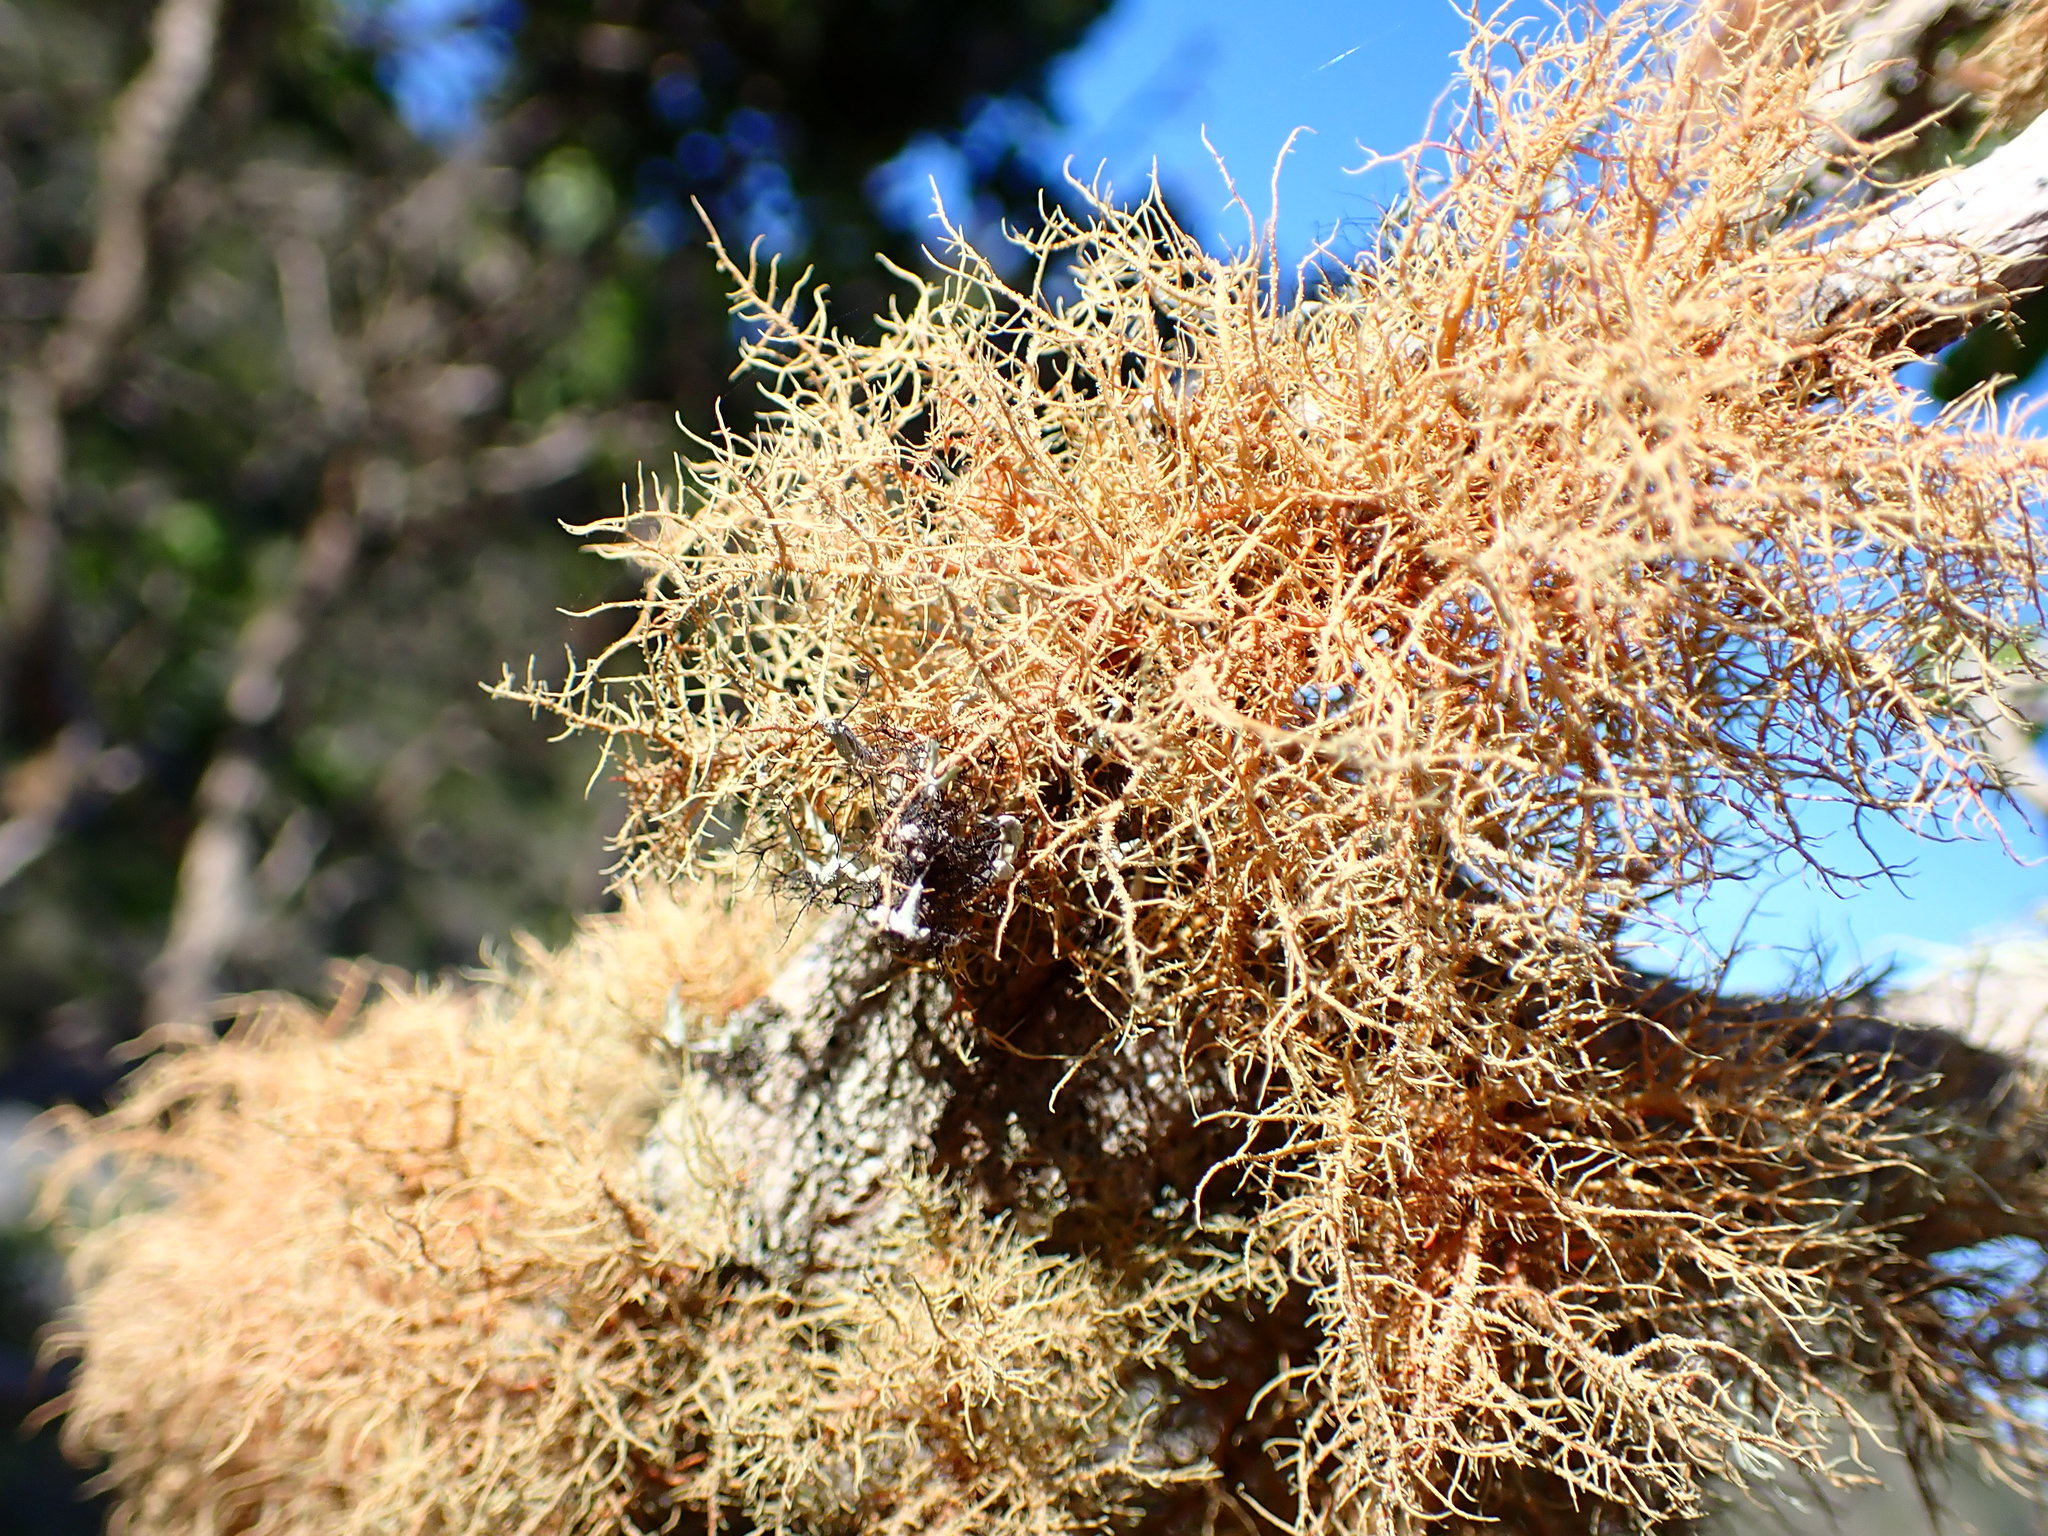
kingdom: Fungi
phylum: Ascomycota
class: Lecanoromycetes
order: Lecanorales
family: Parmeliaceae
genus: Usnea
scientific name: Usnea rubicunda
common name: Red beard lichen
